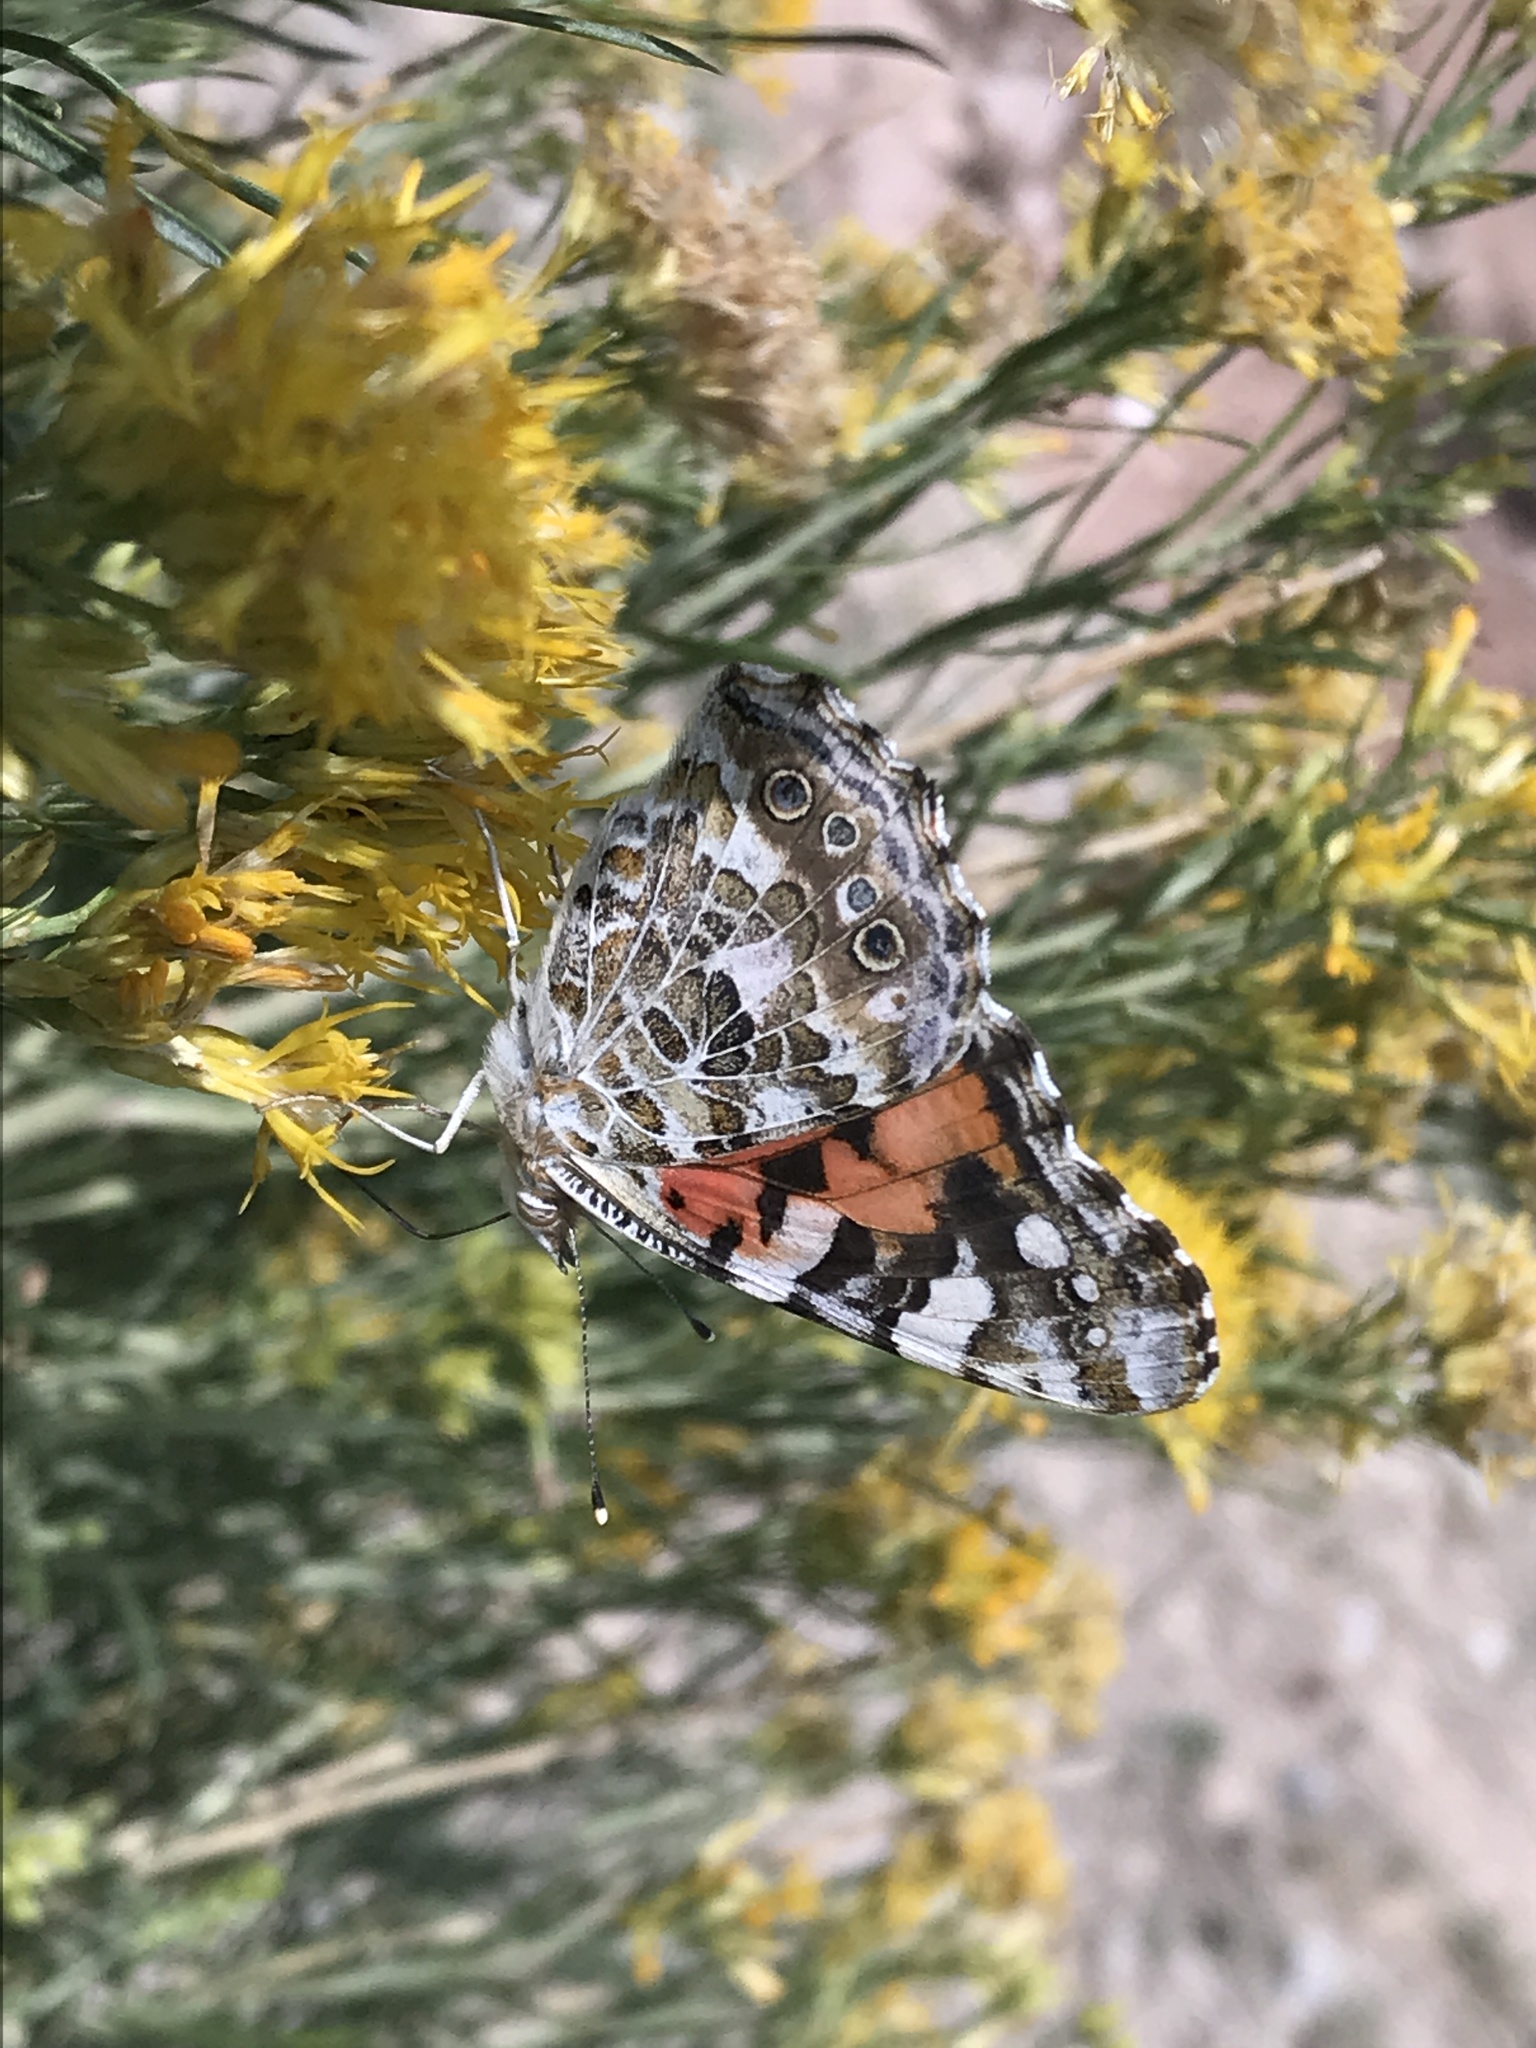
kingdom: Animalia
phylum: Arthropoda
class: Insecta
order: Lepidoptera
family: Nymphalidae
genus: Vanessa
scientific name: Vanessa cardui
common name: Painted lady
